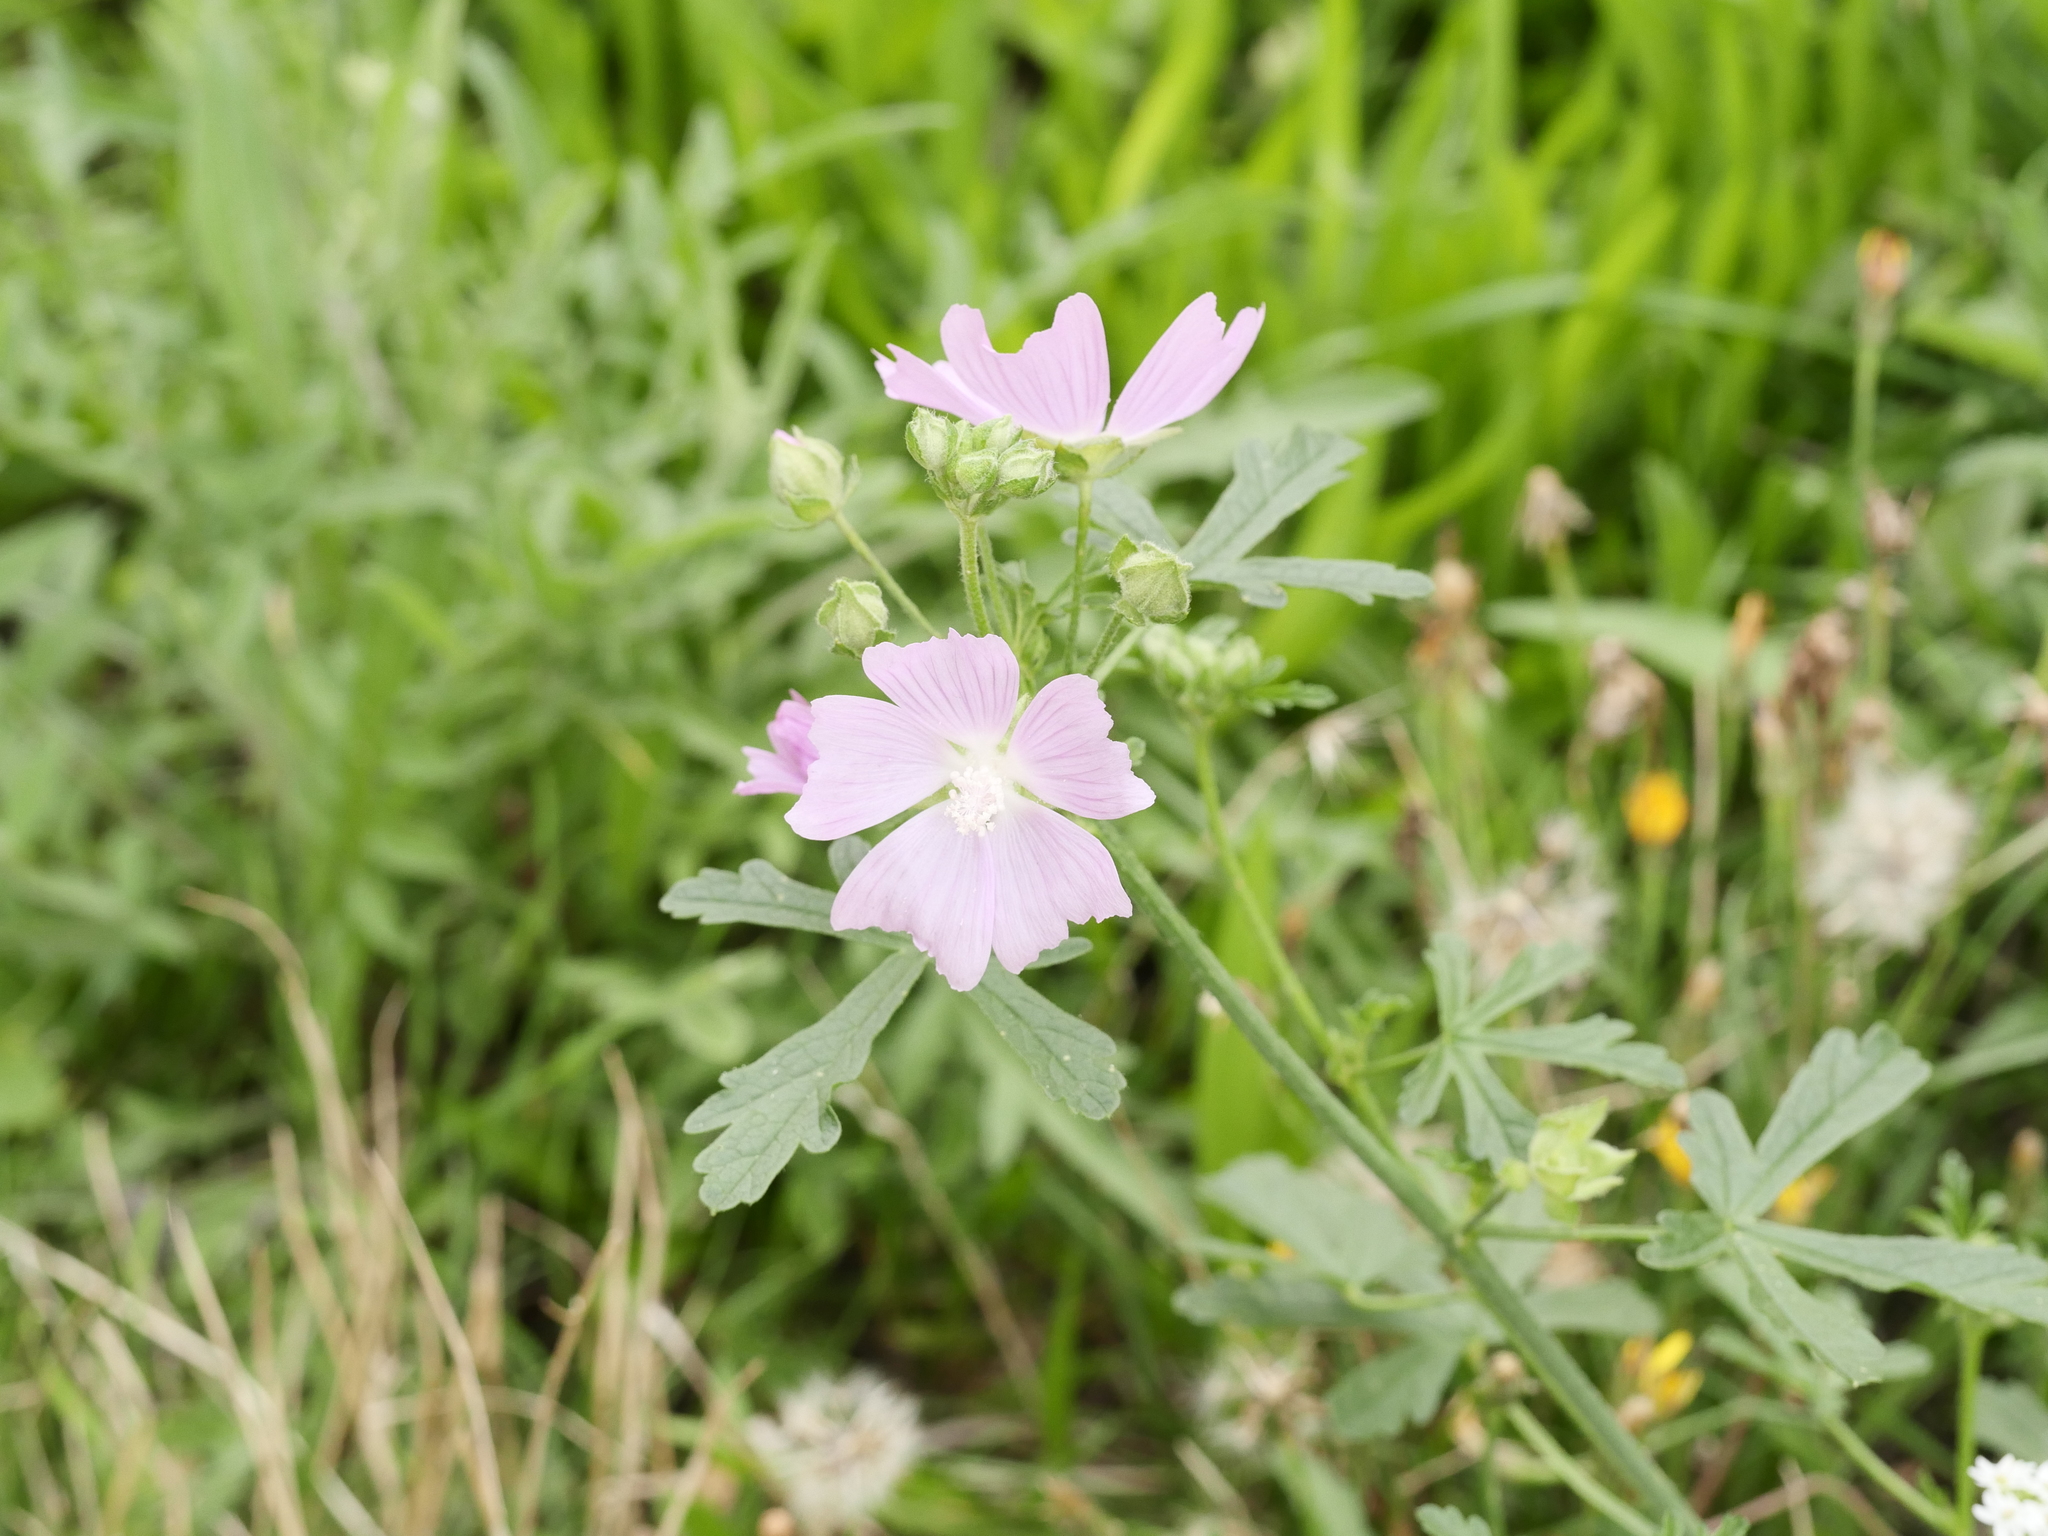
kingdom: Plantae
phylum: Tracheophyta
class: Magnoliopsida
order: Malvales
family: Malvaceae
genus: Malva
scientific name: Malva alcea
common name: Greater musk-mallow
